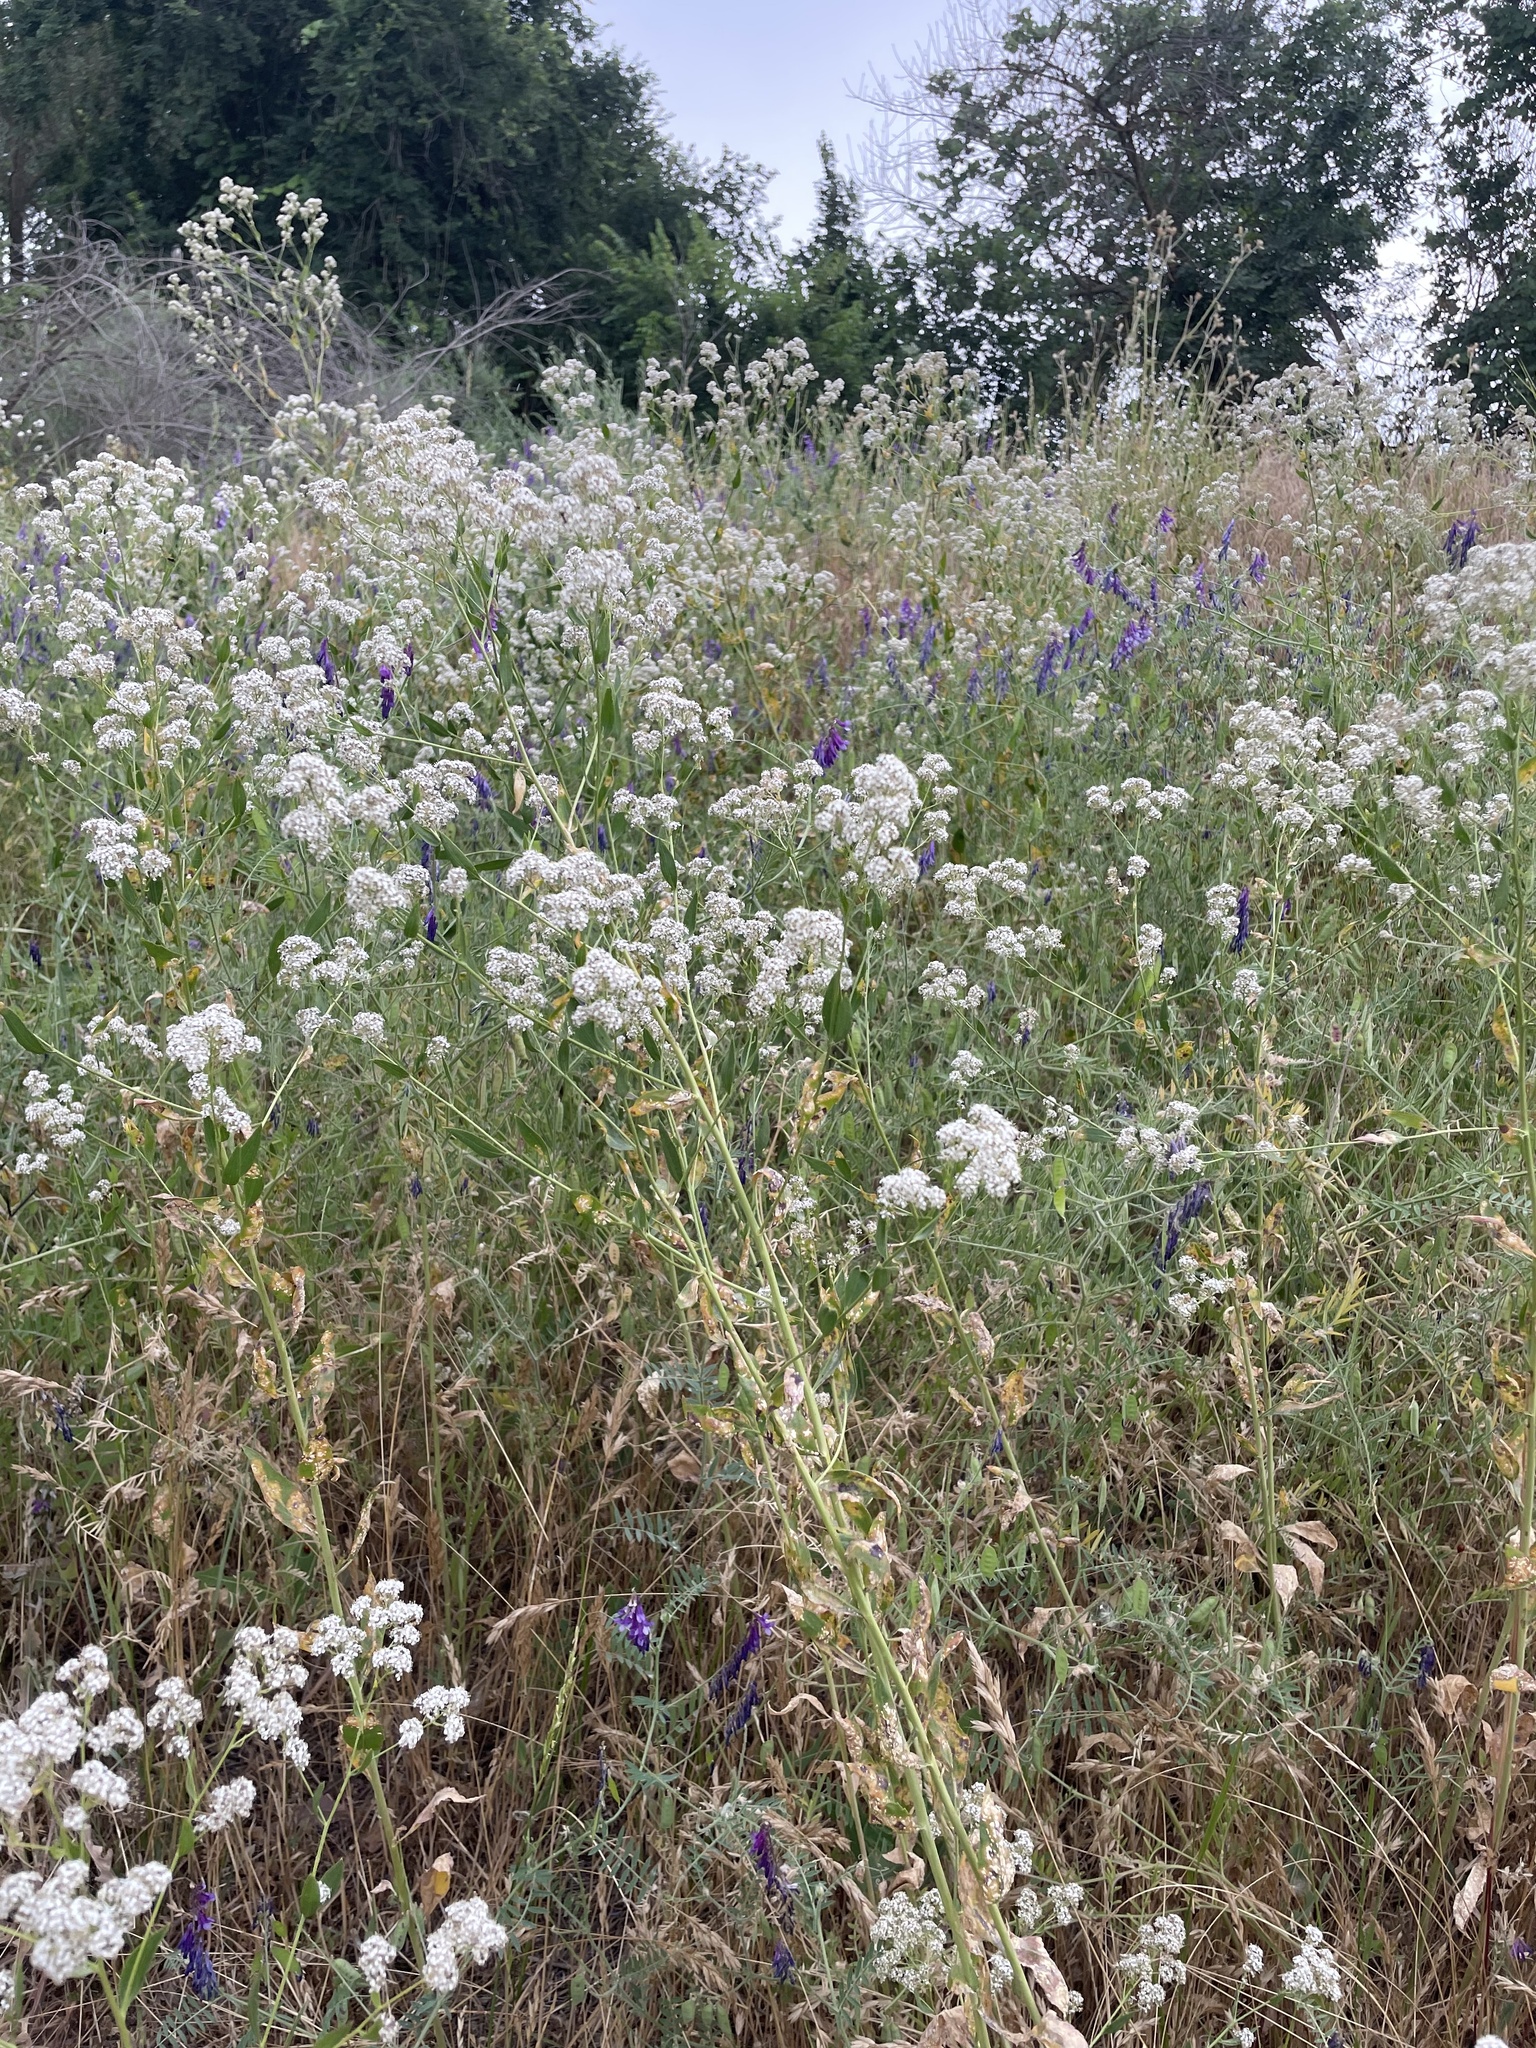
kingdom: Plantae
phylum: Tracheophyta
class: Magnoliopsida
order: Brassicales
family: Brassicaceae
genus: Lepidium
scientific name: Lepidium latifolium
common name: Dittander
